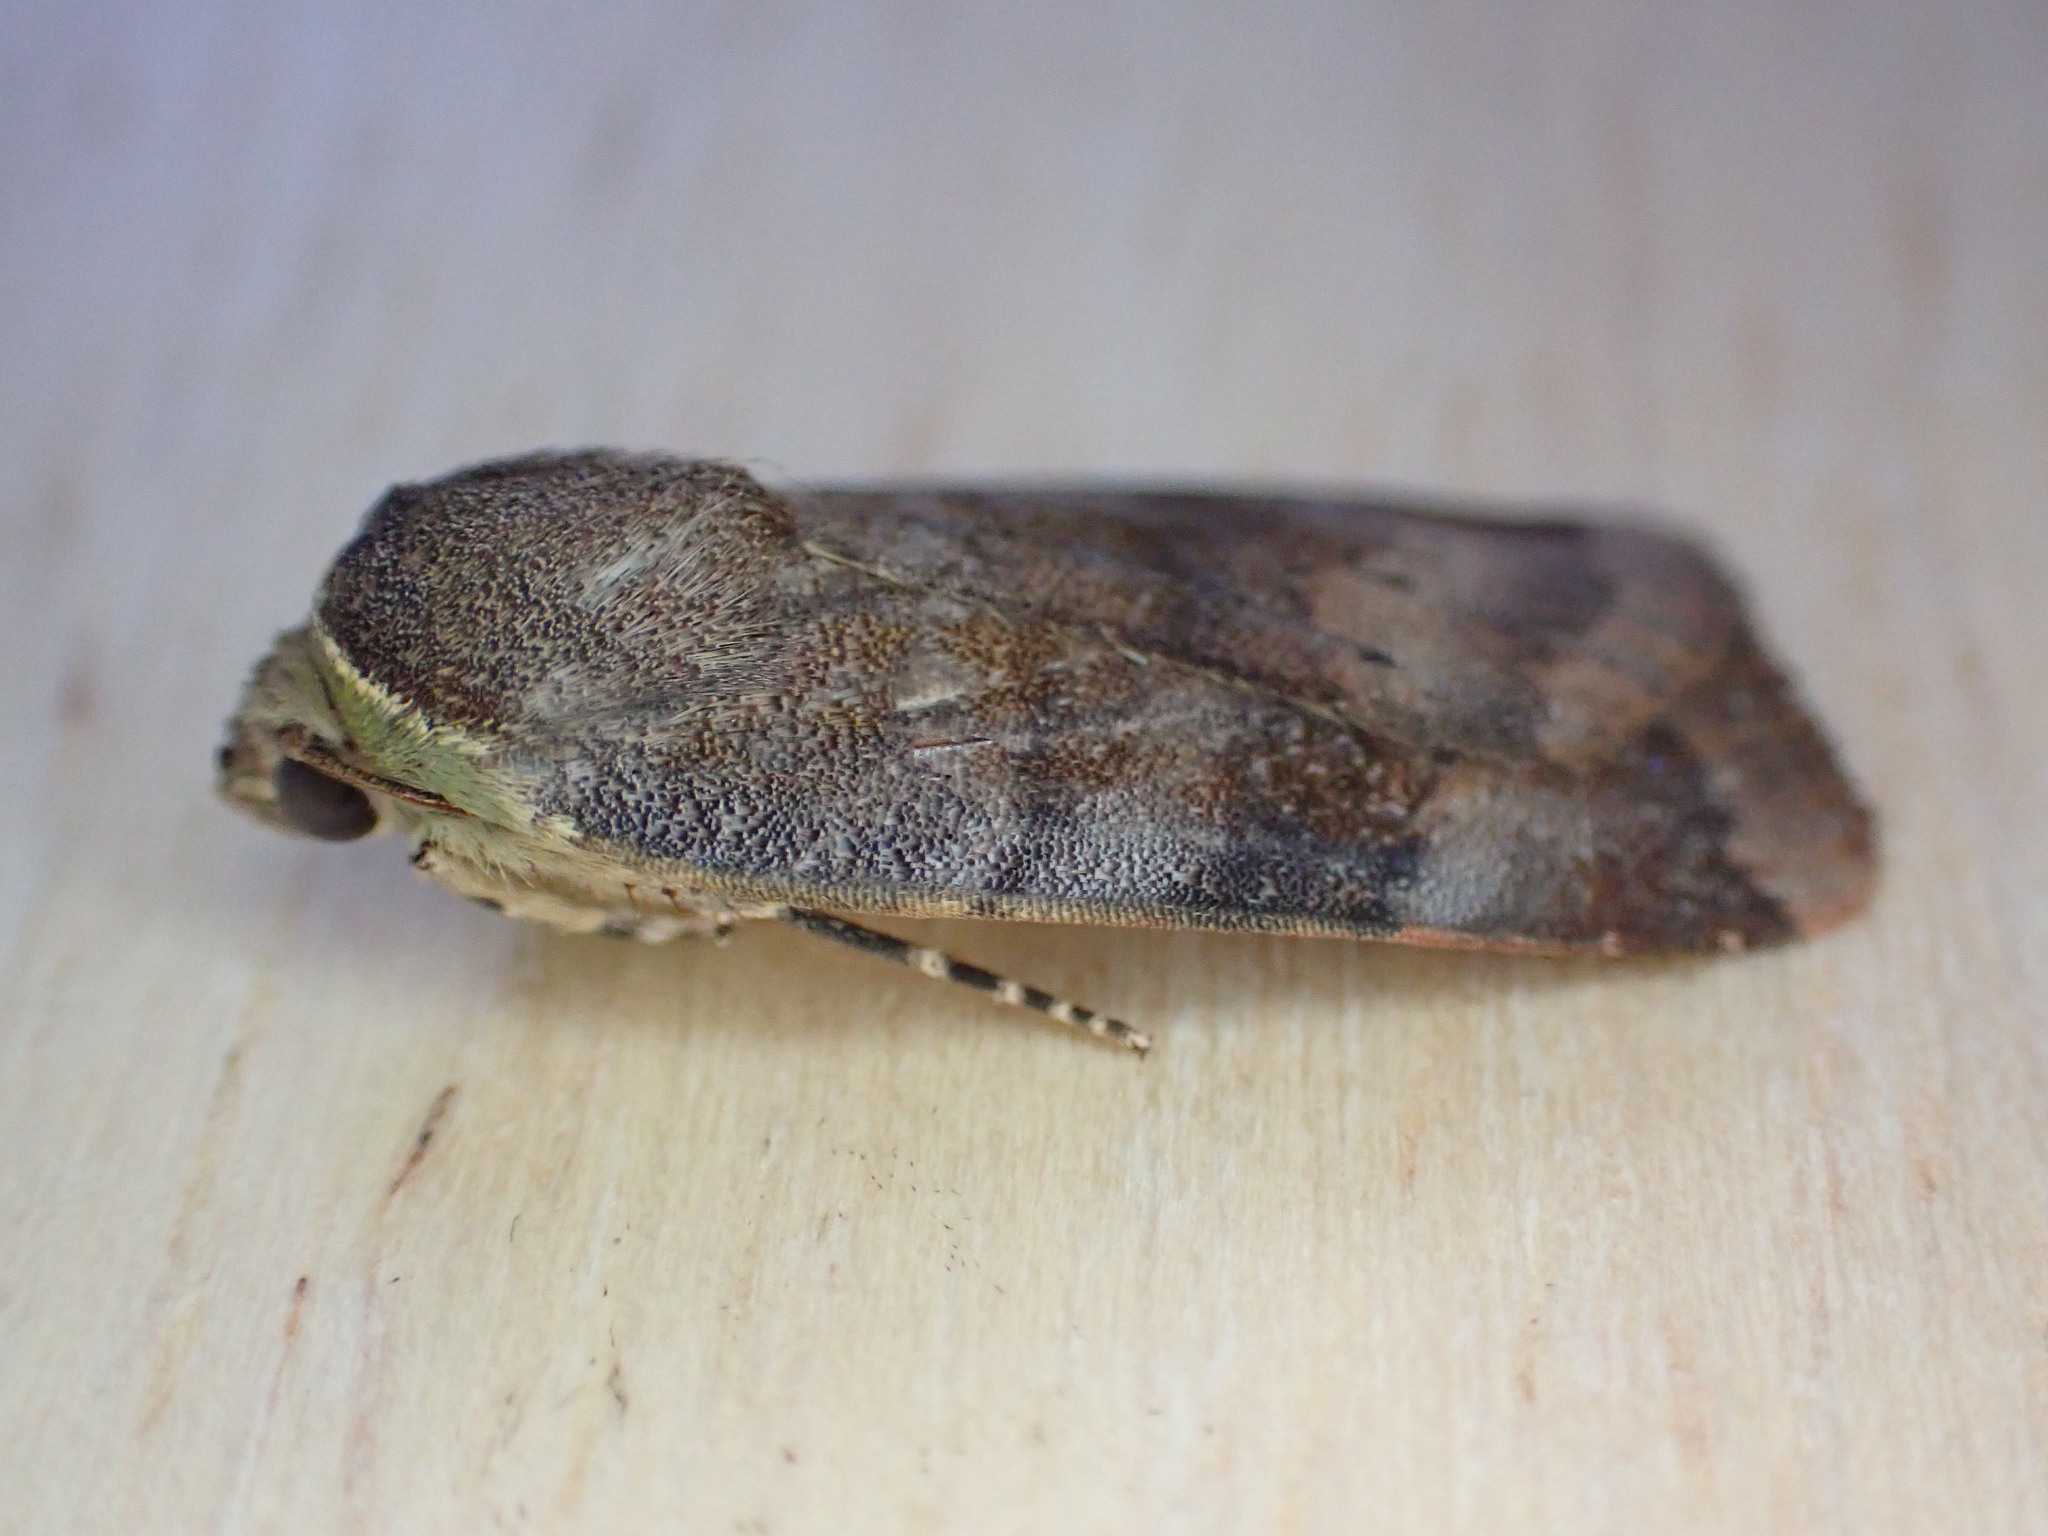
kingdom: Animalia
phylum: Arthropoda
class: Insecta
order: Lepidoptera
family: Noctuidae
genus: Noctua
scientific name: Noctua janthe
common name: Lesser broad-bordered yellow underwing
